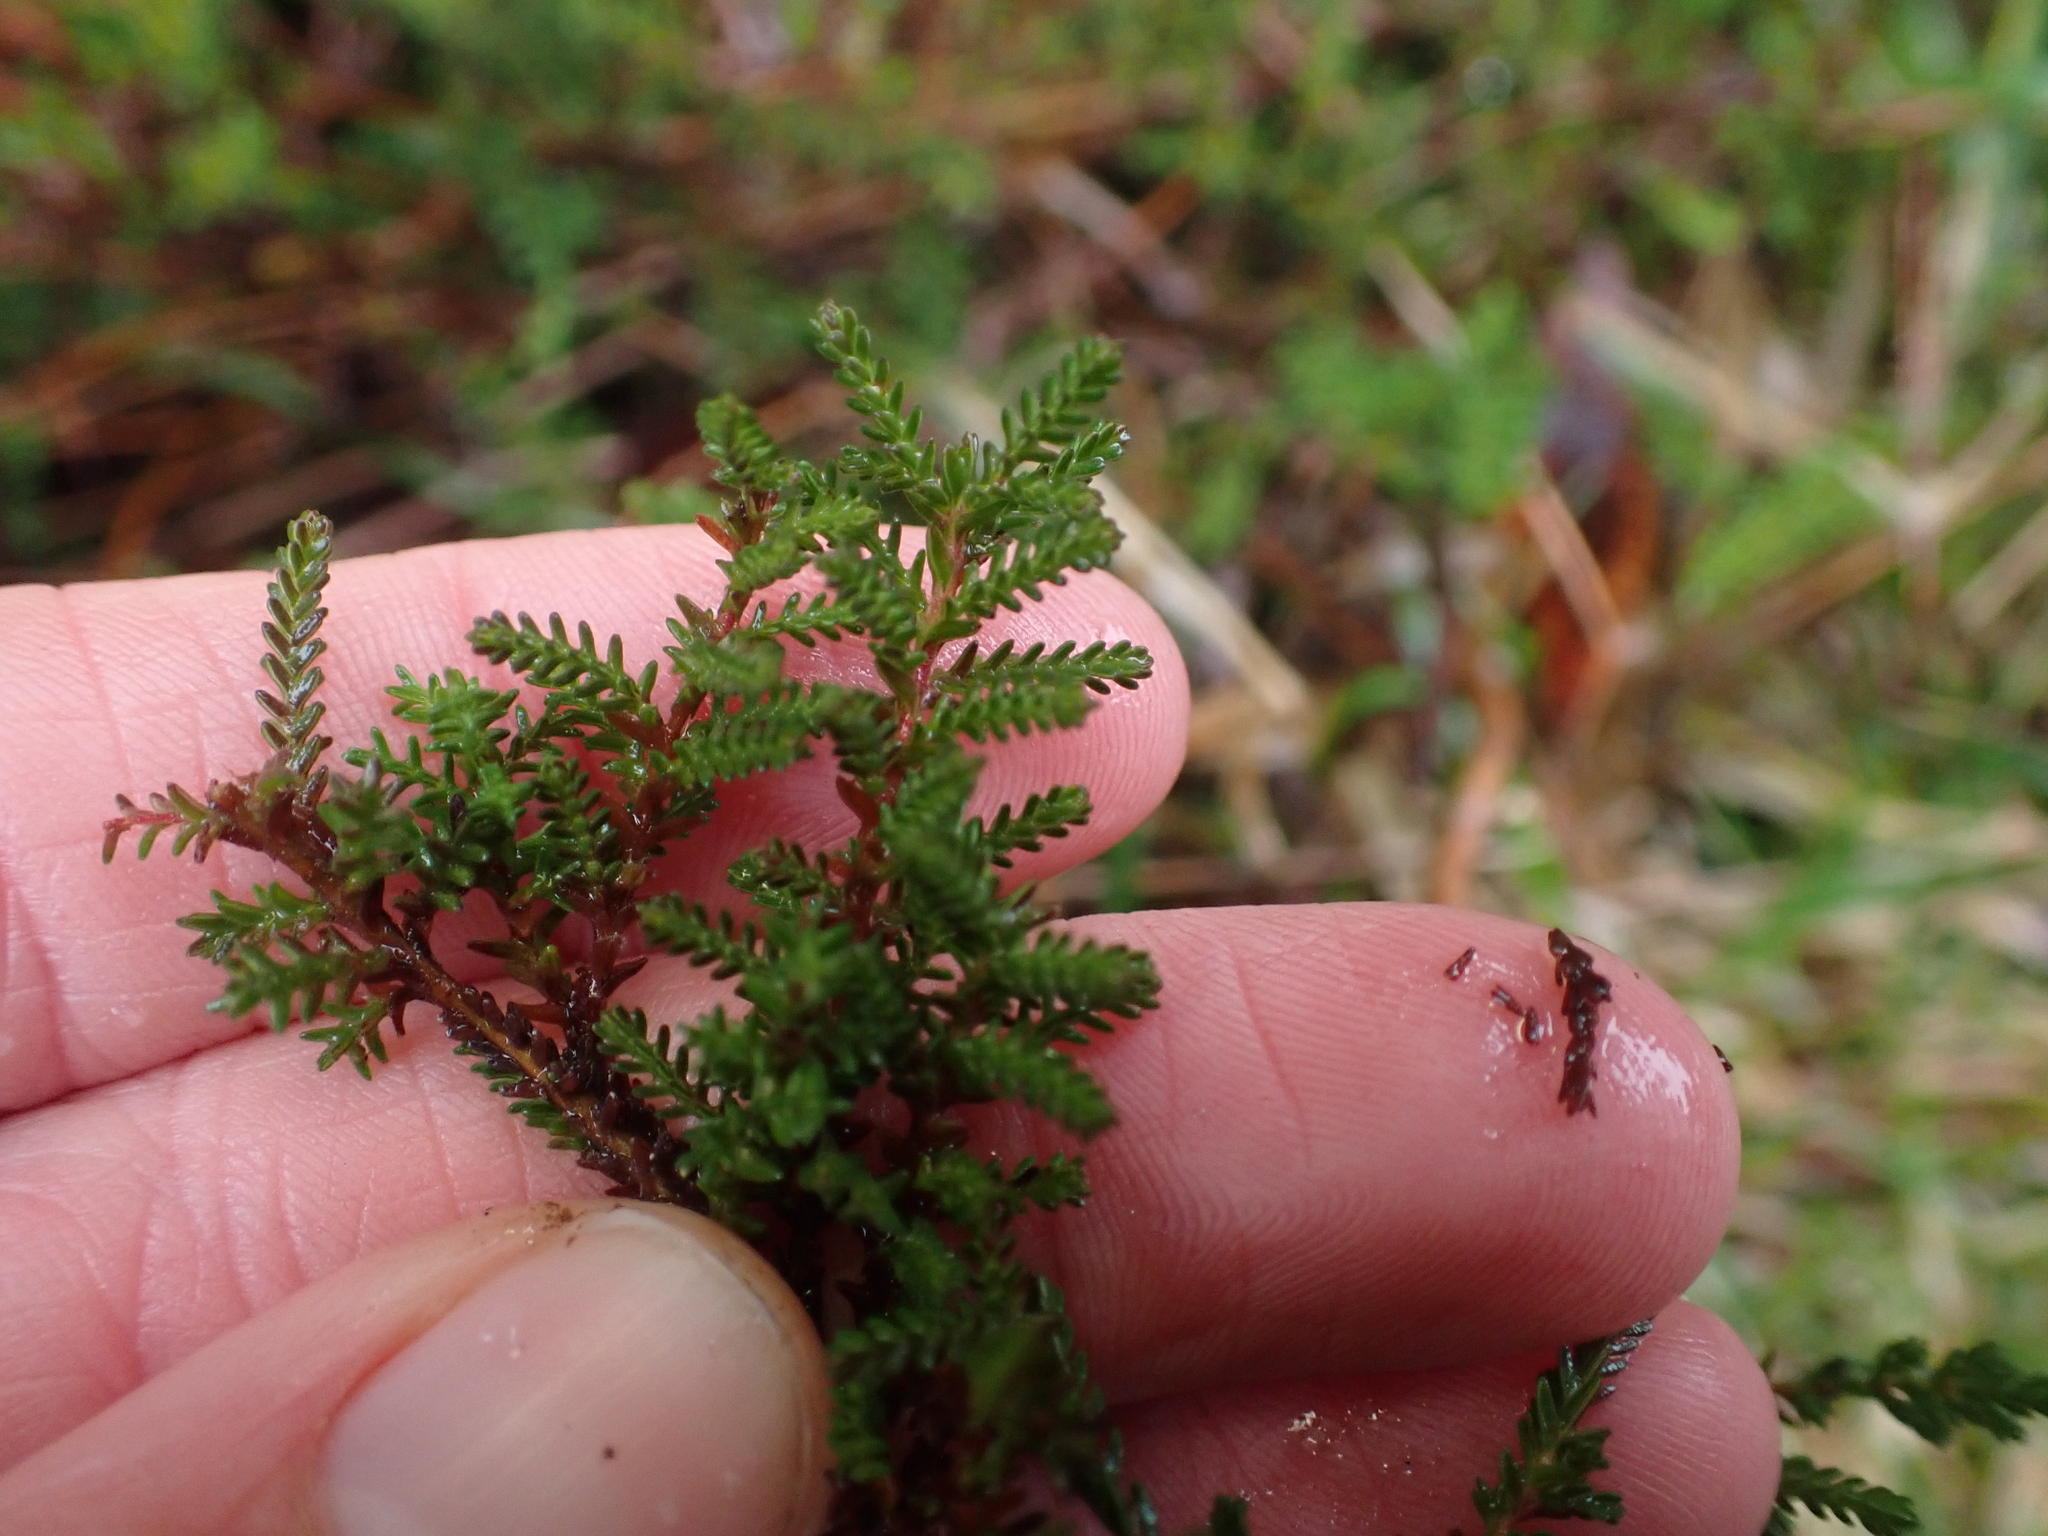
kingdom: Plantae
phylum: Tracheophyta
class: Magnoliopsida
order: Ericales
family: Ericaceae
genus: Calluna
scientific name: Calluna vulgaris
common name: Heather
